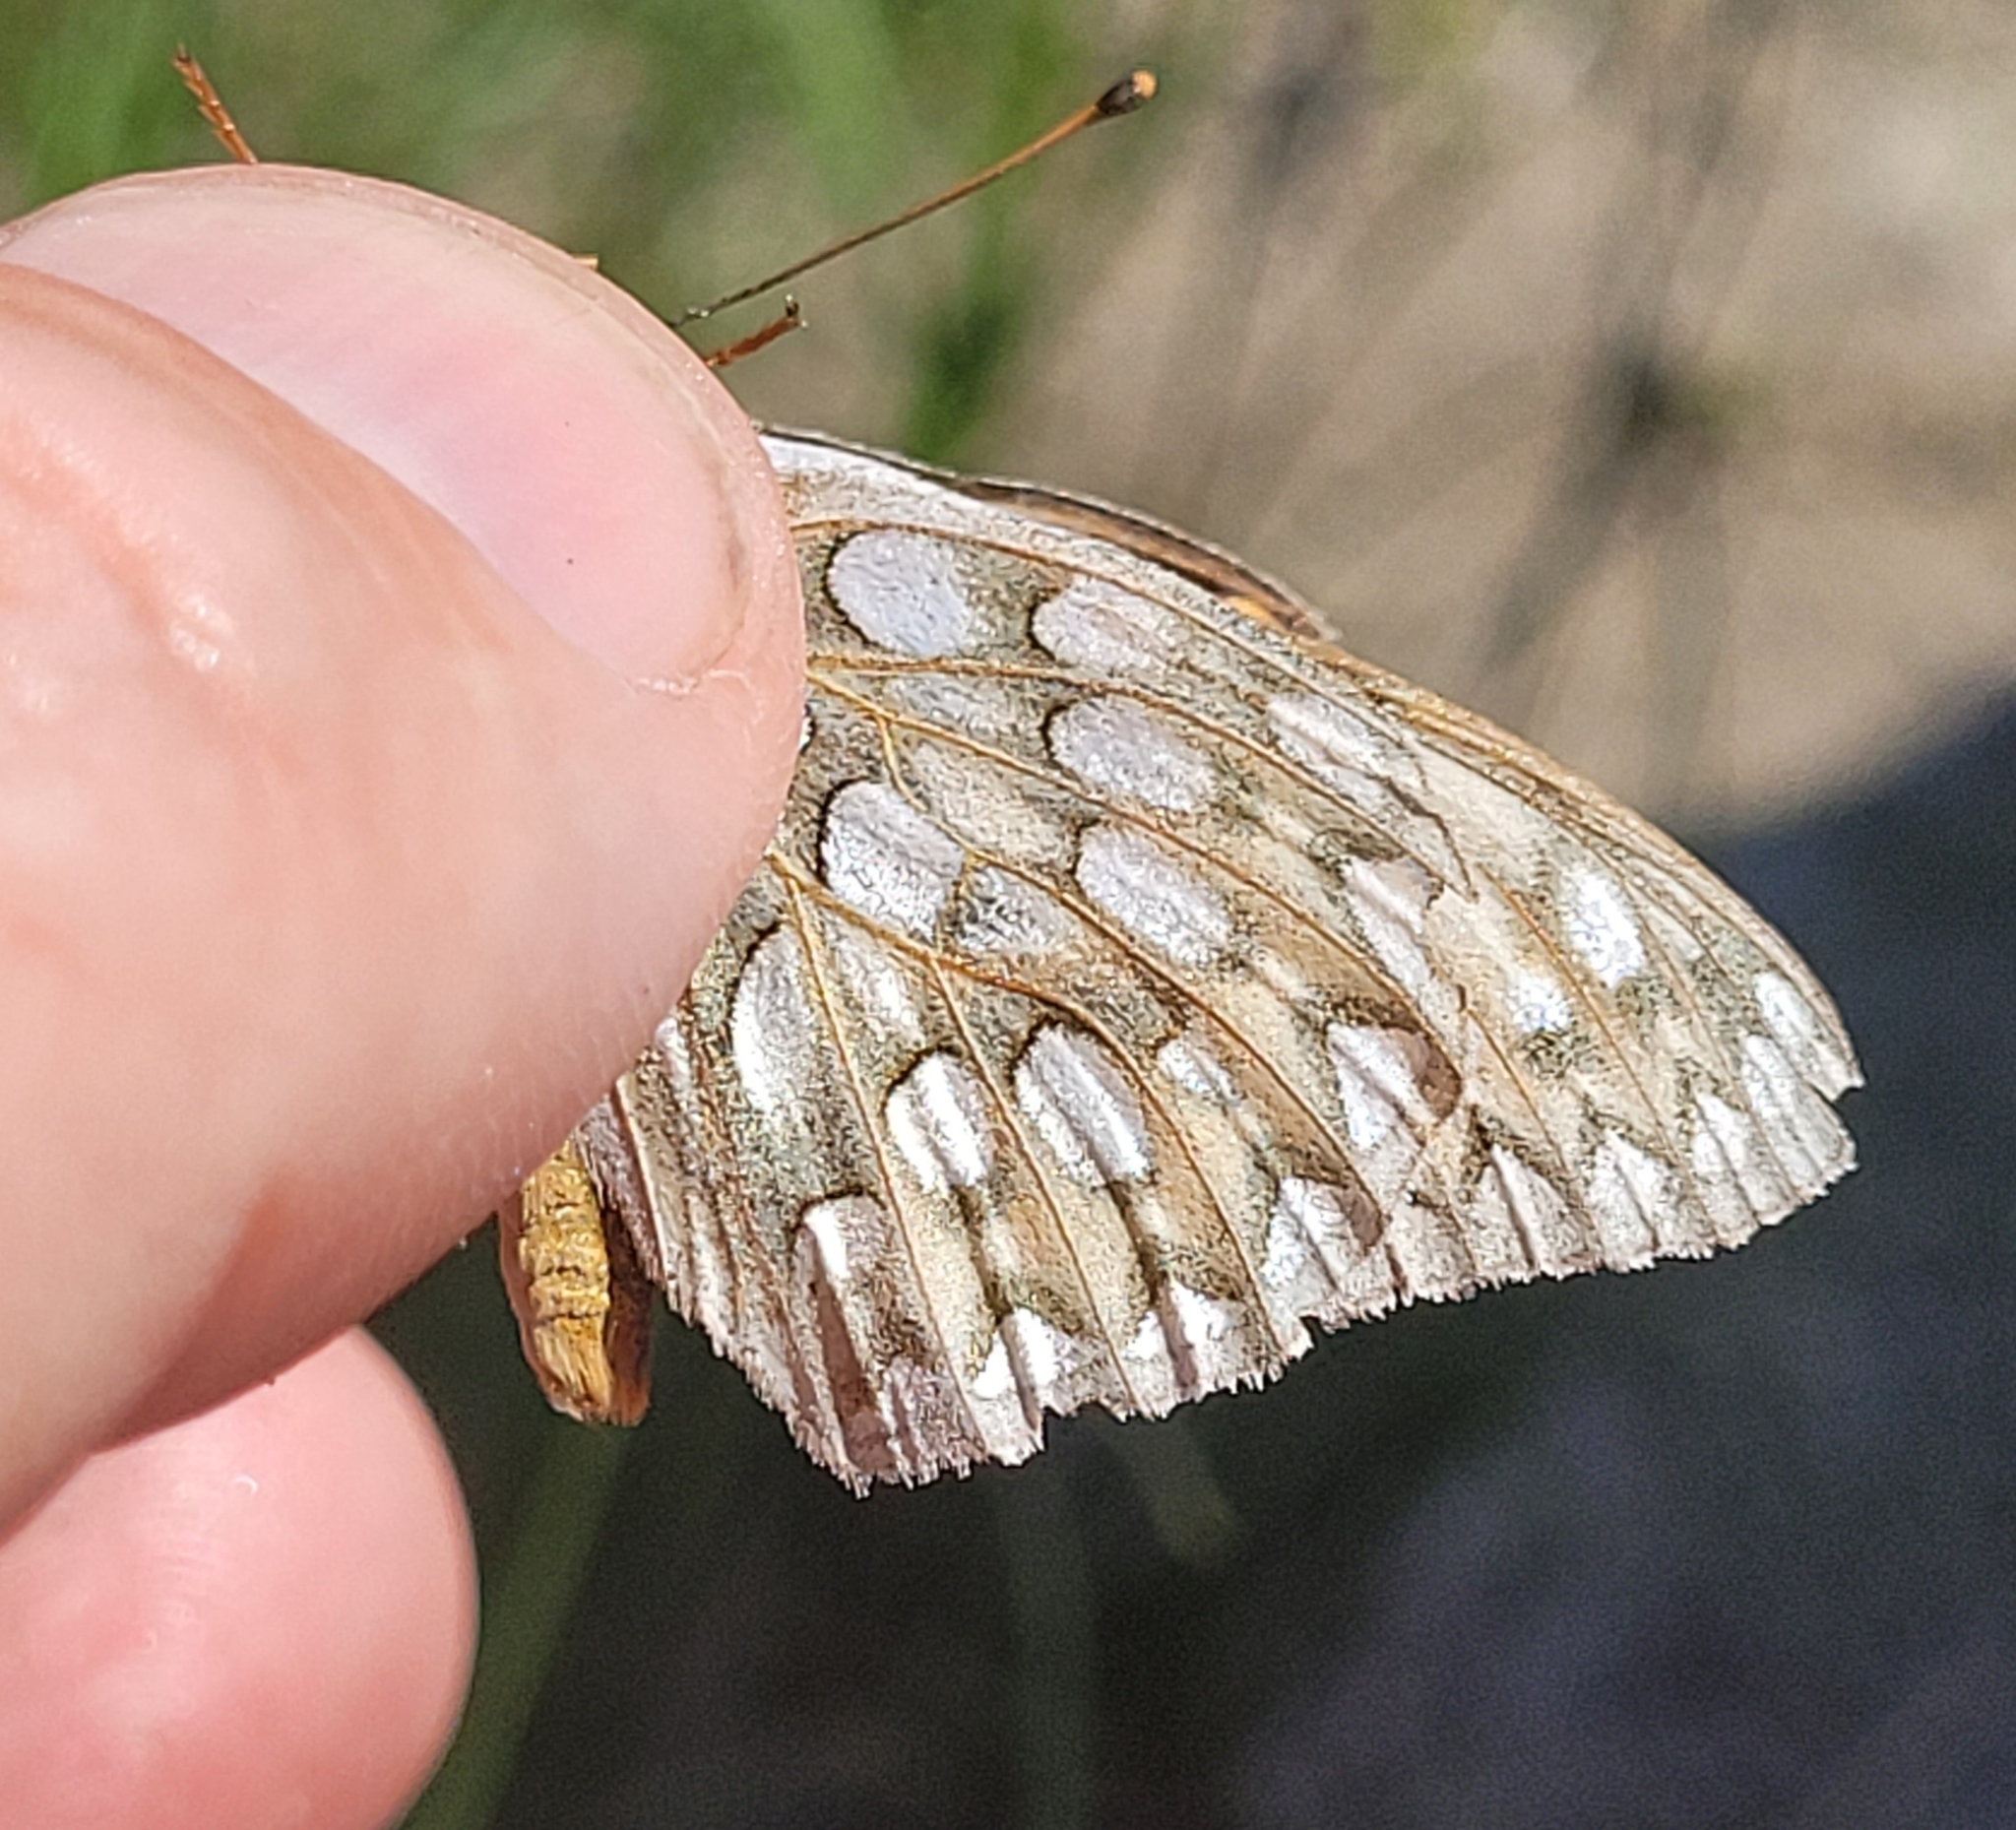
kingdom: Animalia
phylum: Arthropoda
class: Insecta
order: Lepidoptera
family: Nymphalidae
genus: Speyeria
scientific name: Speyeria callippe
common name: Callippe fritillary
